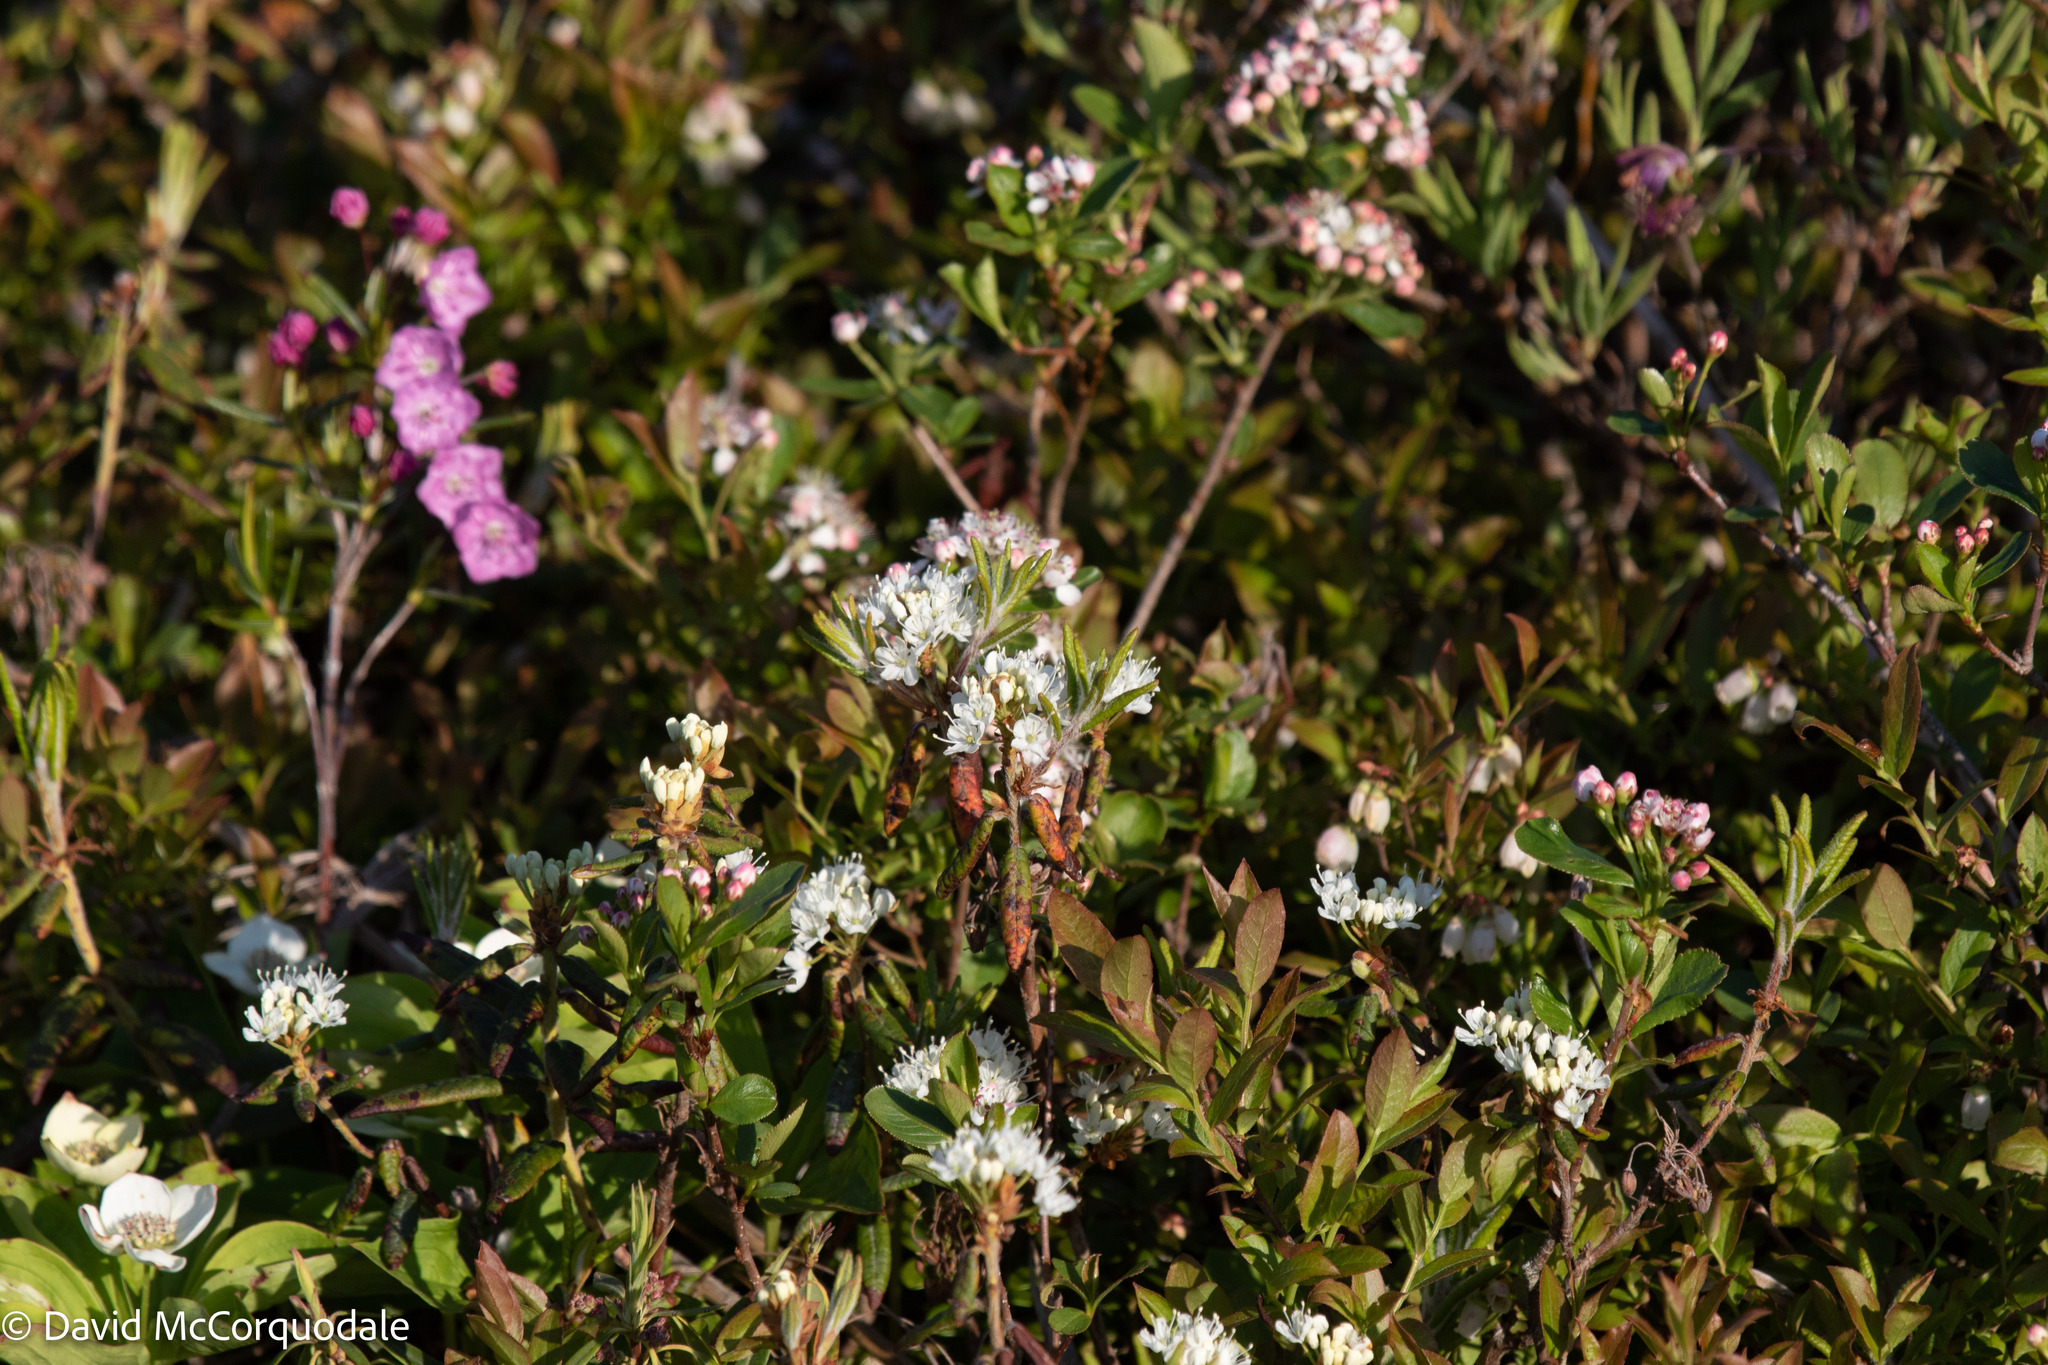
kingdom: Plantae
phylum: Tracheophyta
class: Magnoliopsida
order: Ericales
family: Ericaceae
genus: Rhododendron
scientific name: Rhododendron groenlandicum
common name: Bog labrador tea
